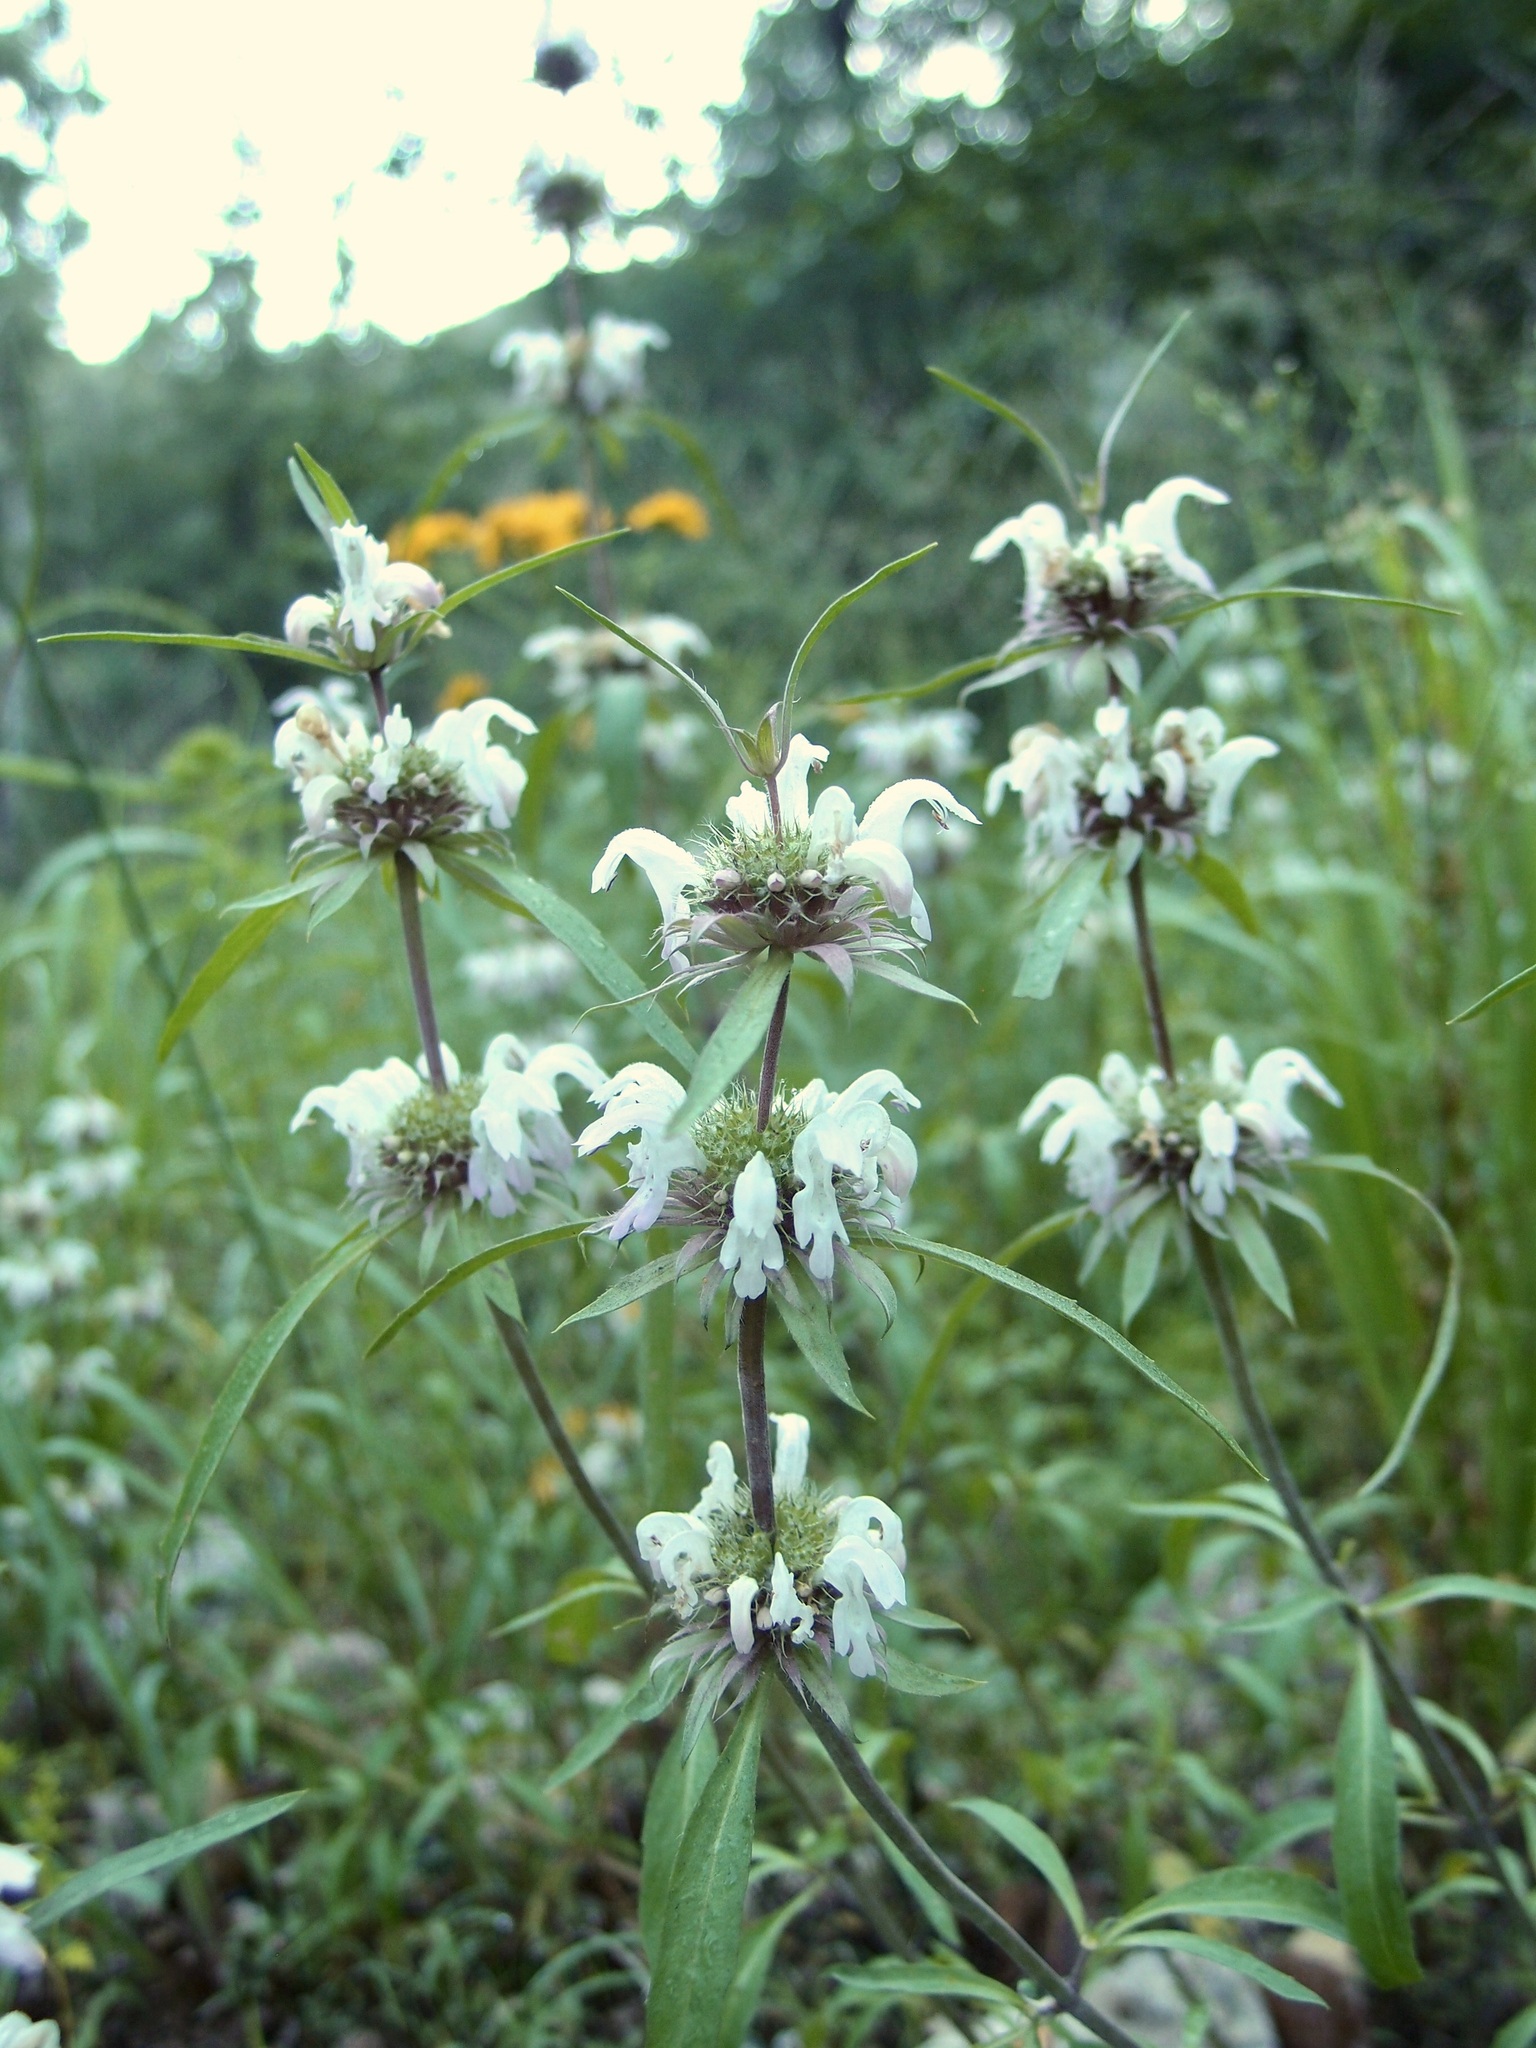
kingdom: Plantae
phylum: Tracheophyta
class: Magnoliopsida
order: Lamiales
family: Lamiaceae
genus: Monarda
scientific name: Monarda citriodora
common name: Lemon beebalm
